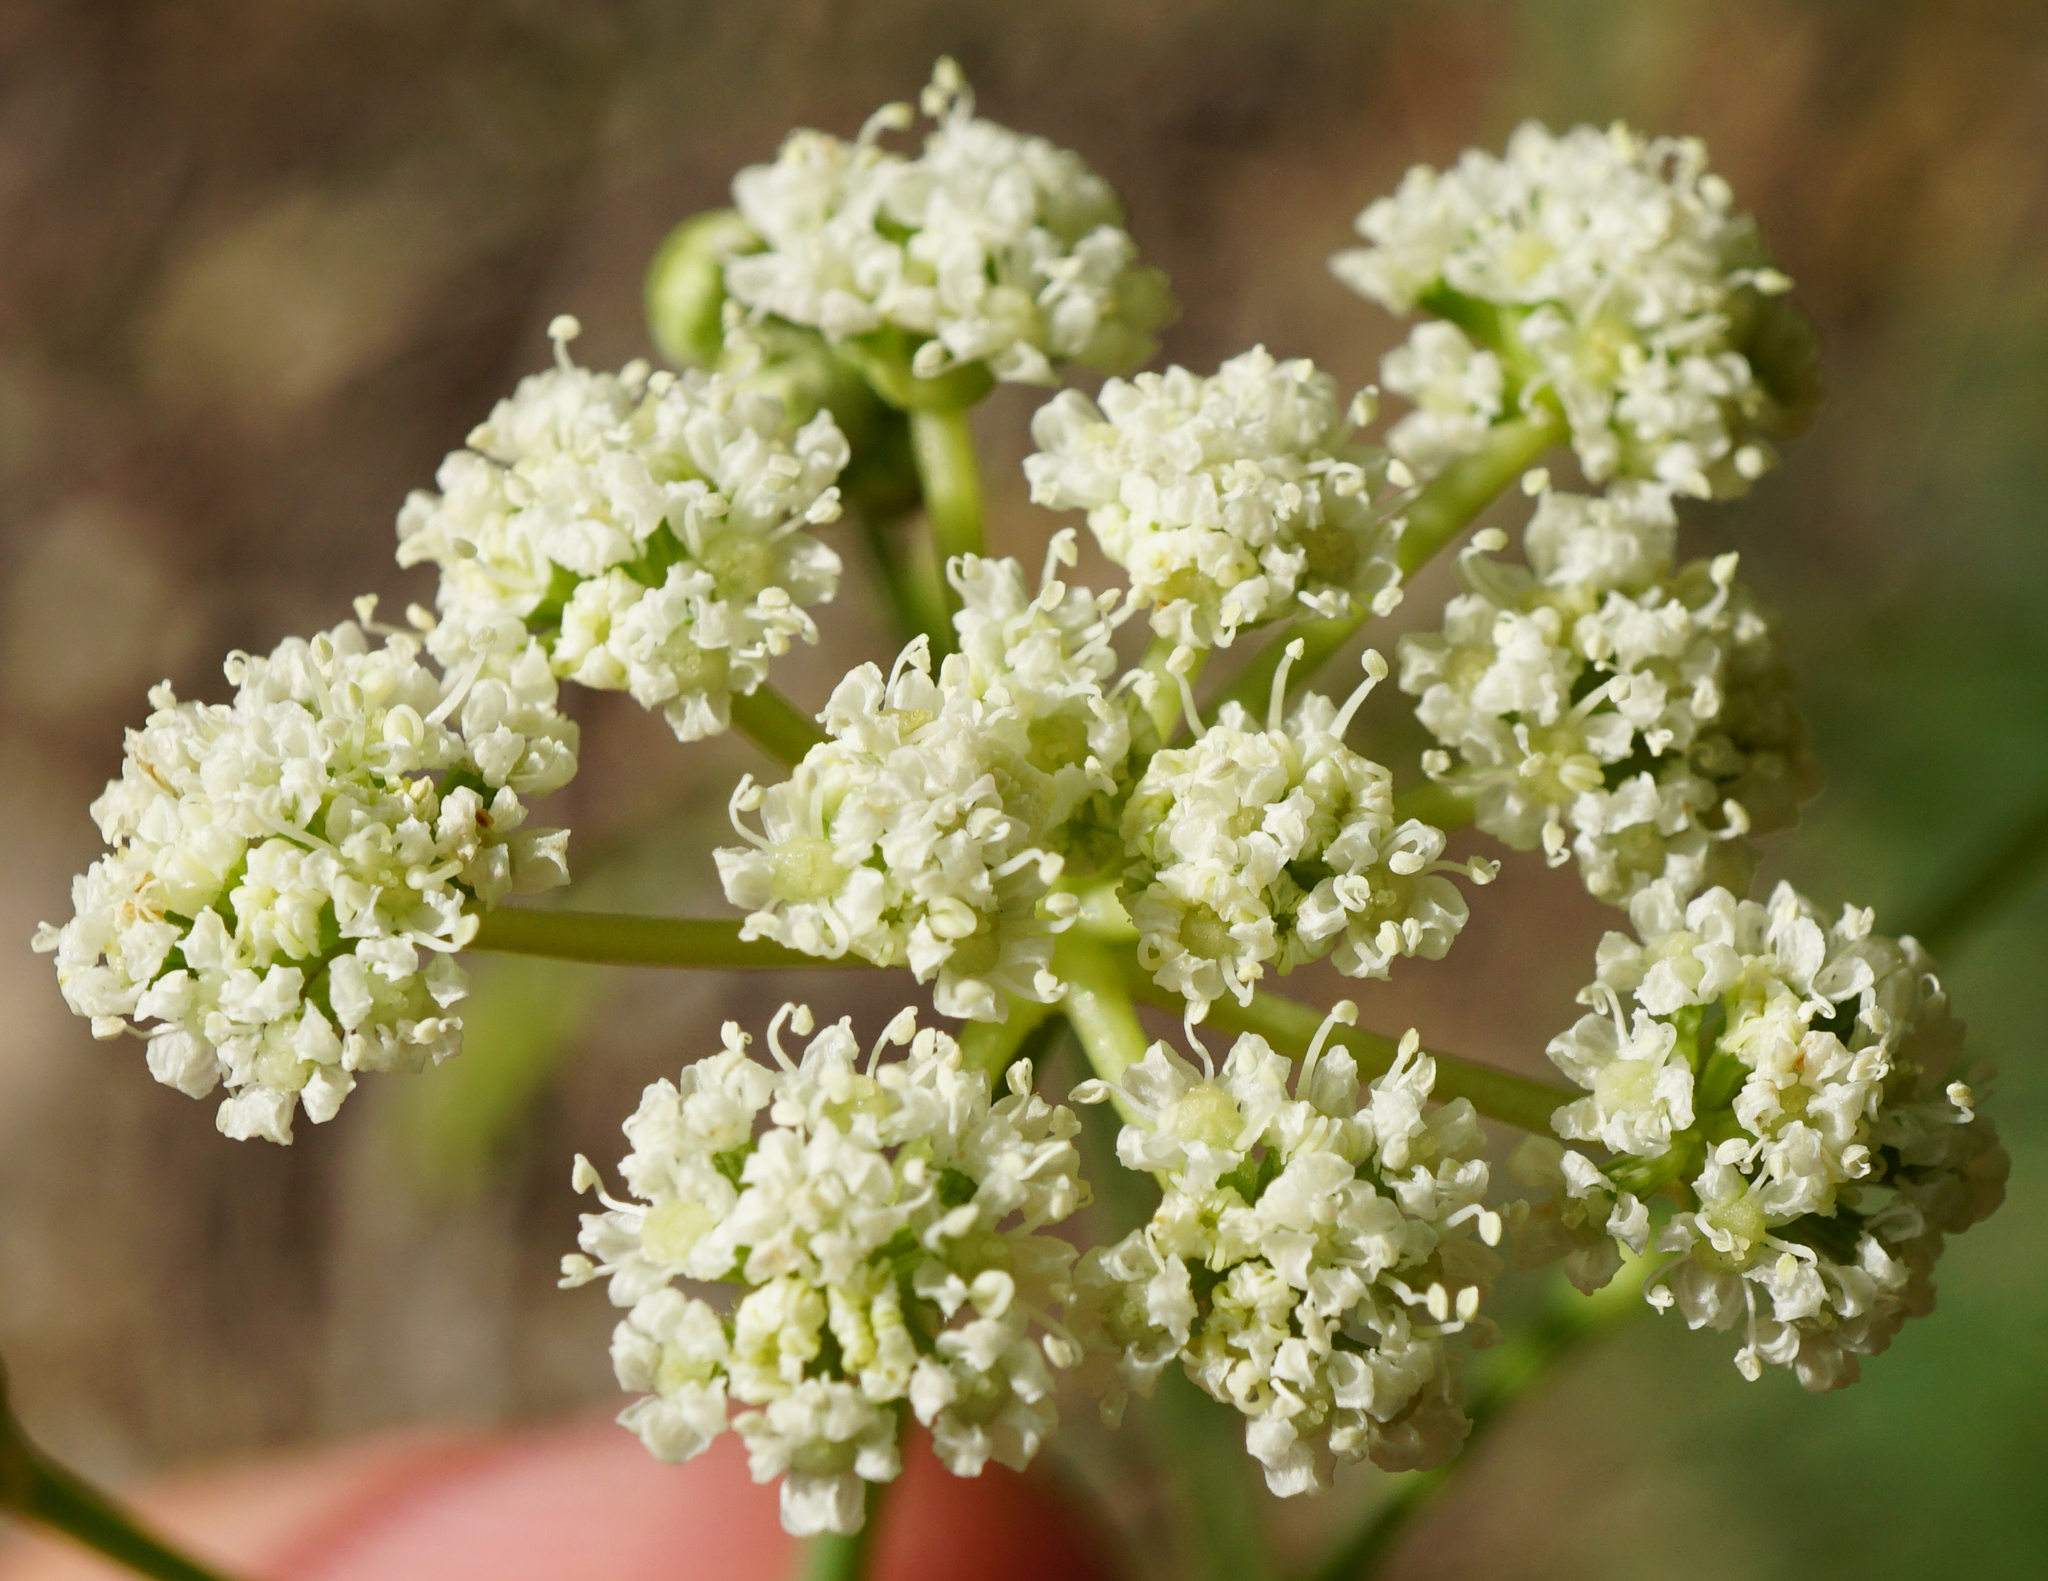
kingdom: Plantae
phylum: Tracheophyta
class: Magnoliopsida
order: Apiales
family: Apiaceae
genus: Hippomarathrum
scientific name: Hippomarathrum
